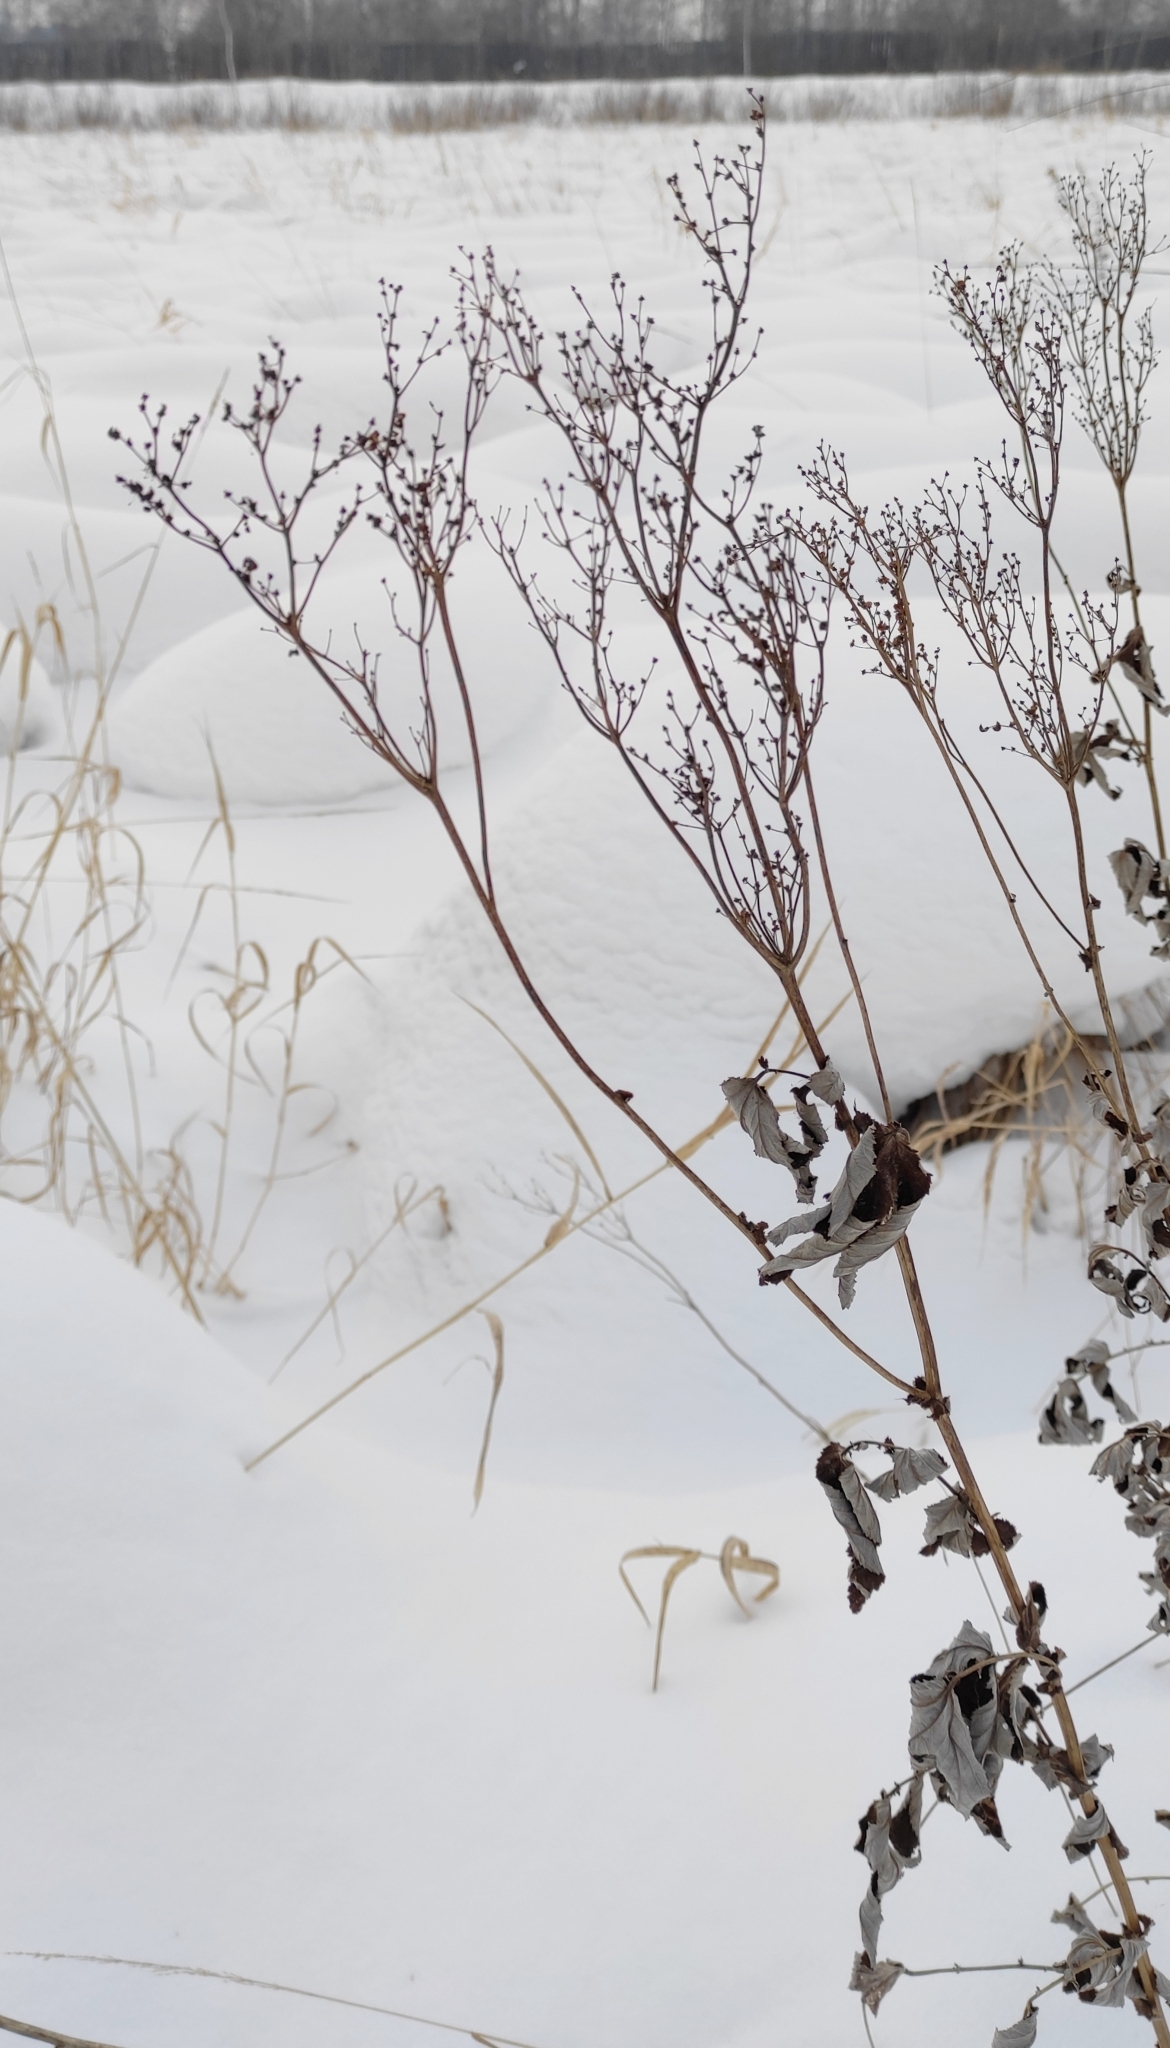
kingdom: Plantae
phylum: Tracheophyta
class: Magnoliopsida
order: Rosales
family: Rosaceae
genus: Filipendula
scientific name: Filipendula ulmaria
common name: Meadowsweet
